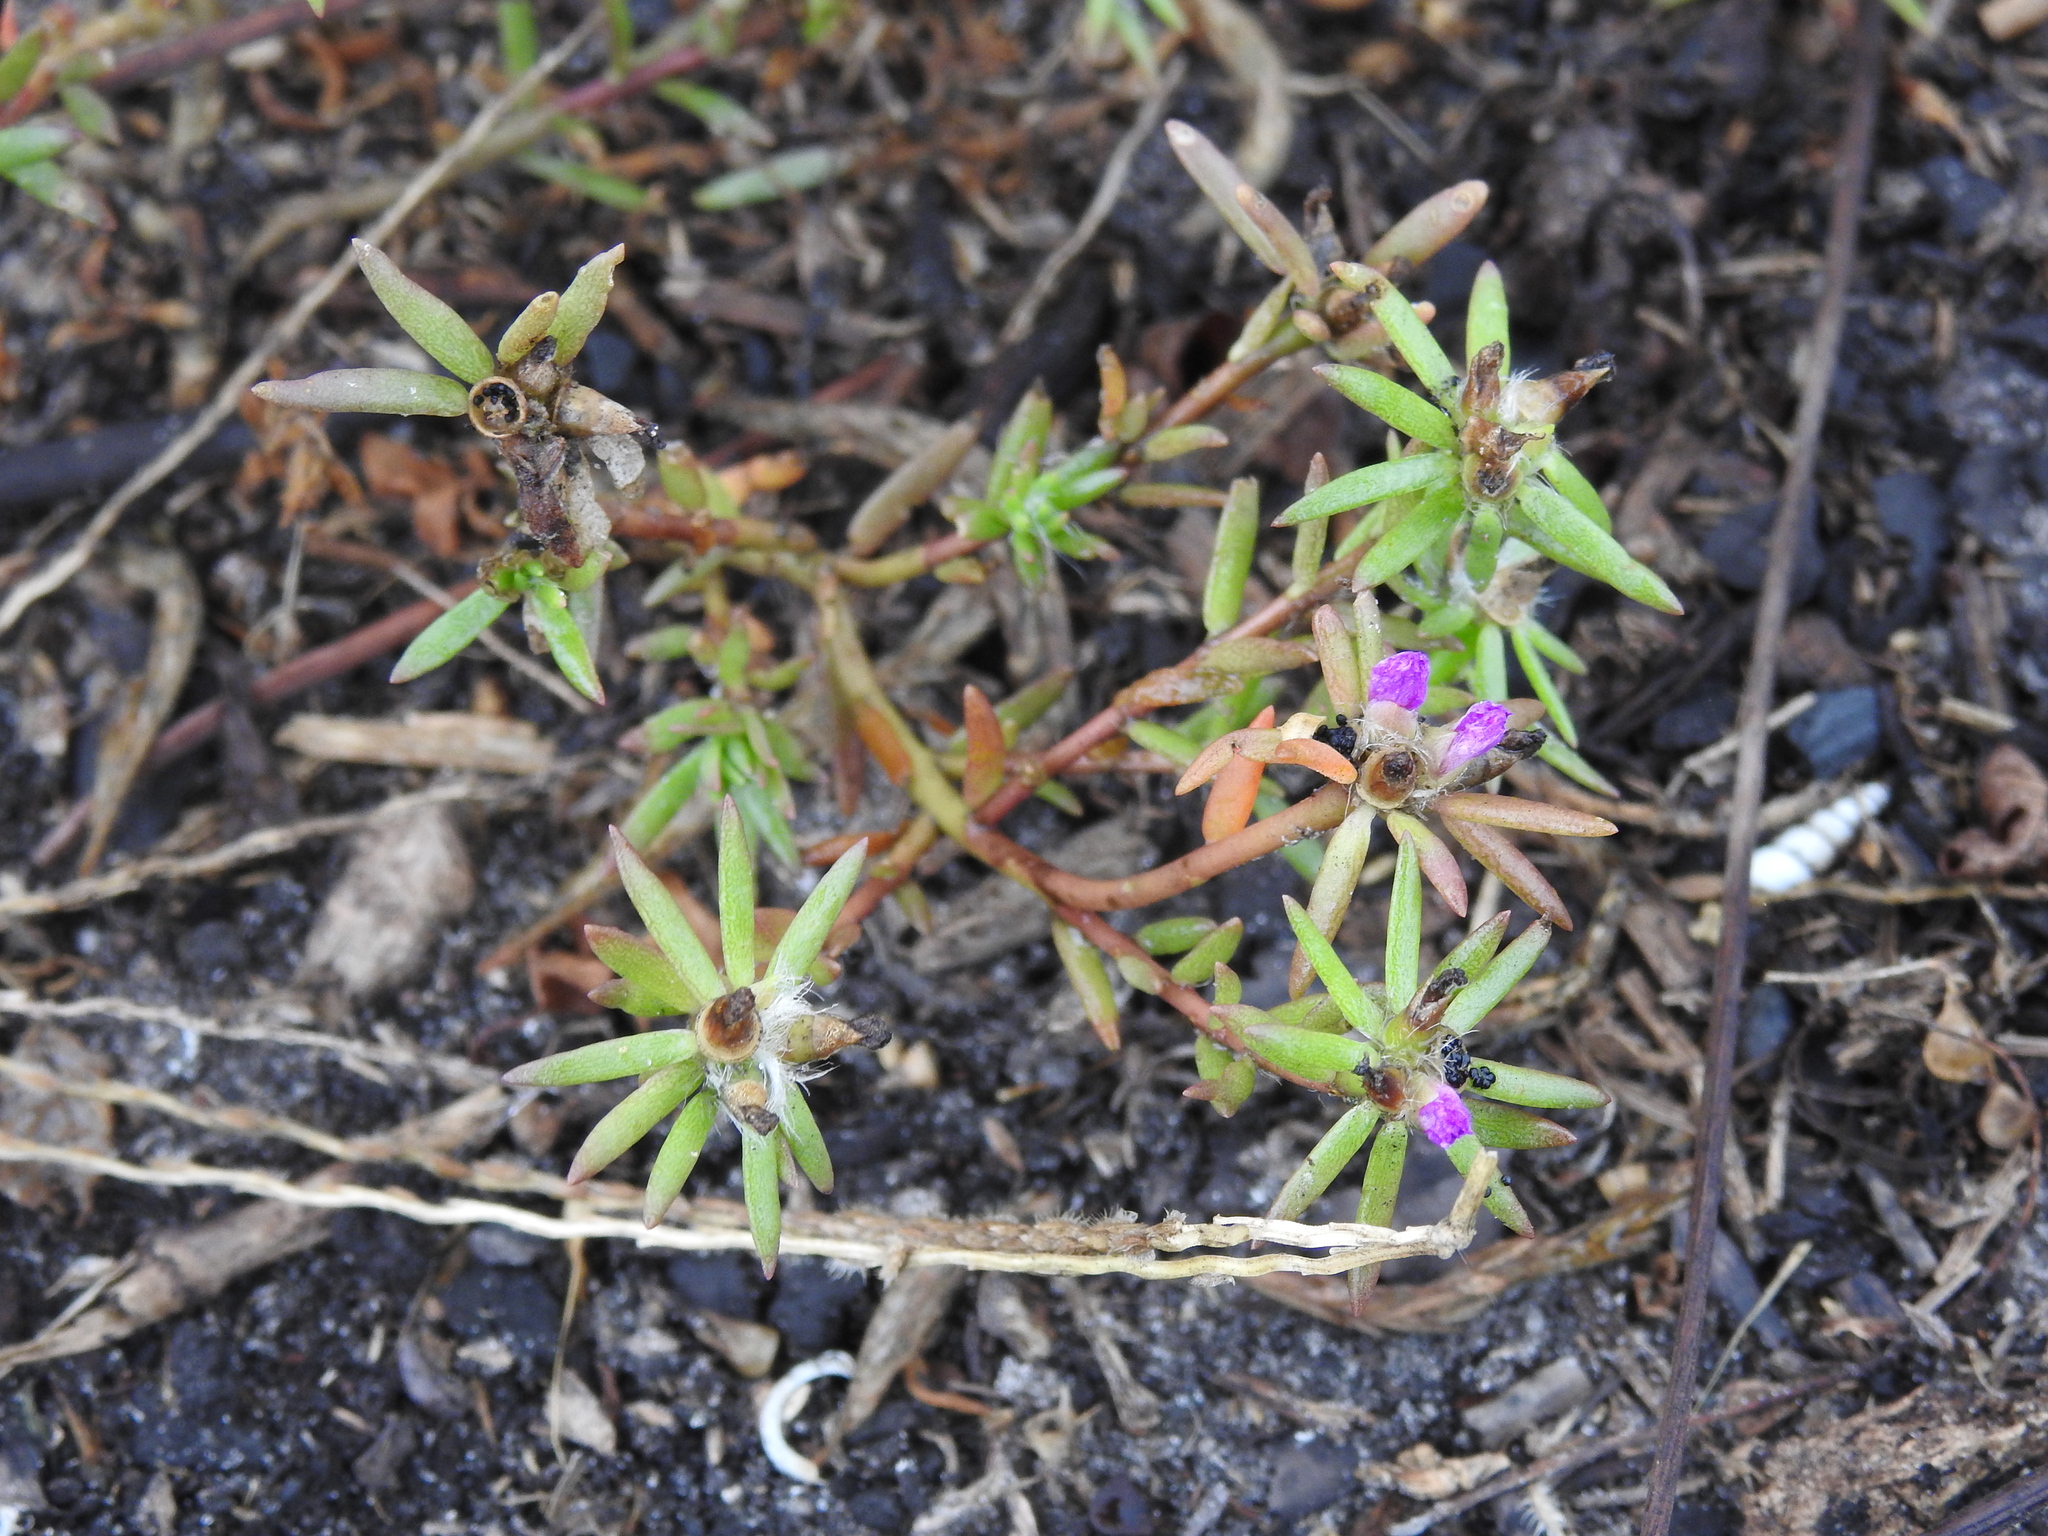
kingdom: Plantae
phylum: Tracheophyta
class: Magnoliopsida
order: Caryophyllales
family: Portulacaceae
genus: Portulaca
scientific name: Portulaca pilosa
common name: Kiss me quick
